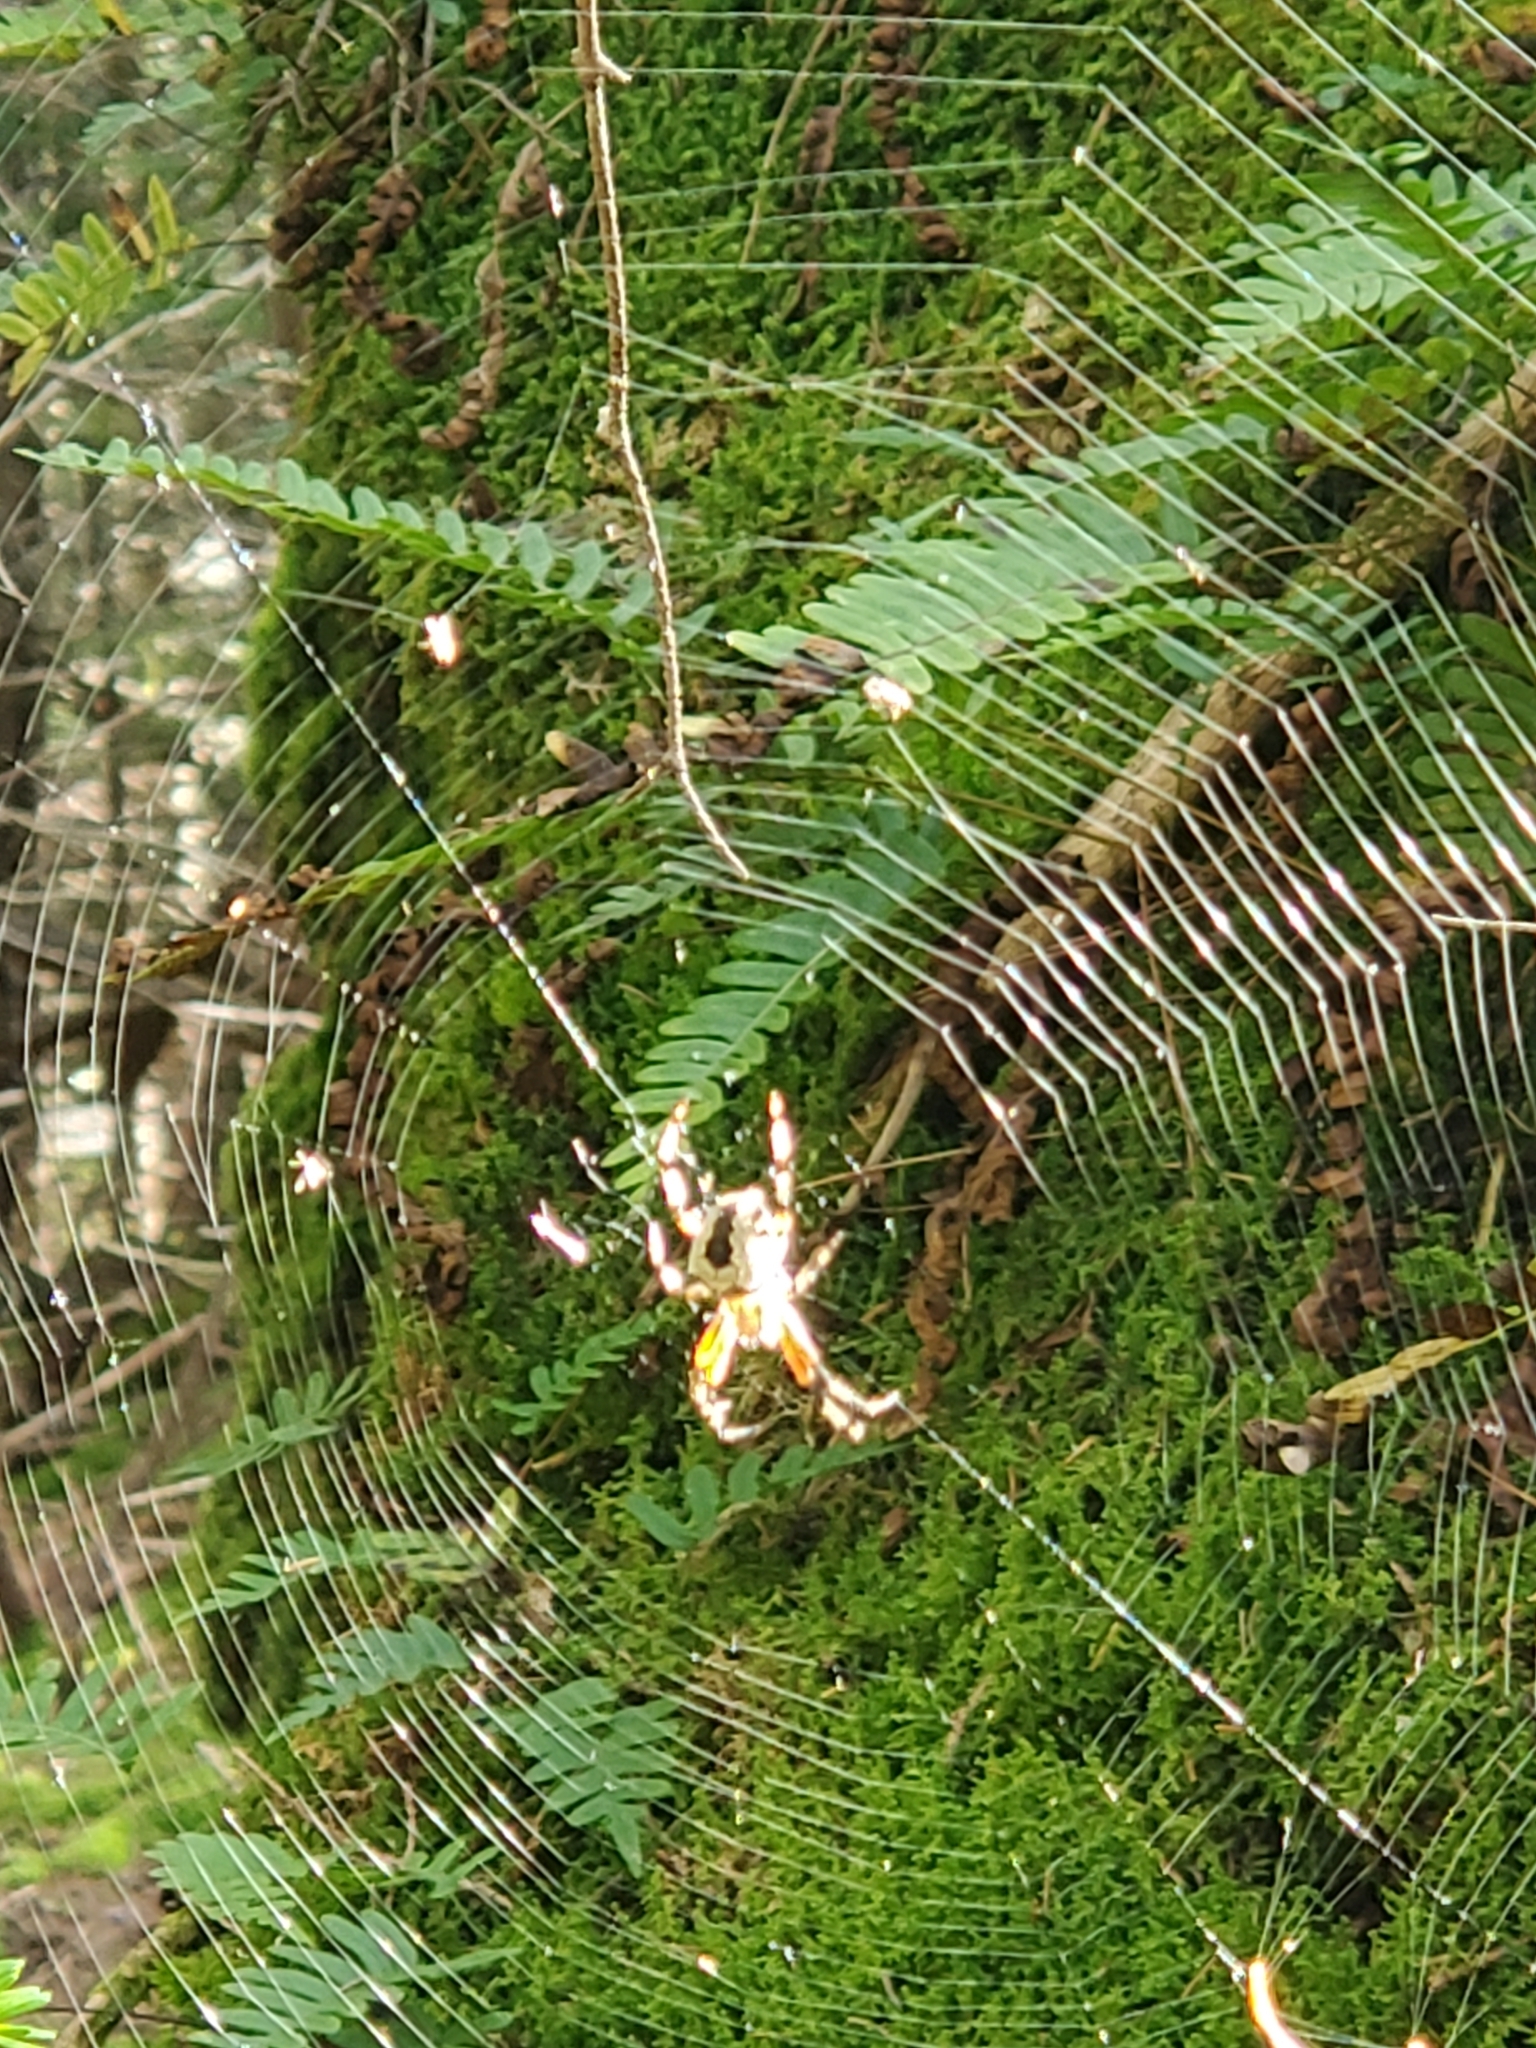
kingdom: Animalia
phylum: Arthropoda
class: Arachnida
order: Araneae
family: Araneidae
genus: Araneus
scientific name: Araneus nordmanni
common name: Nordmann's orbweaver
